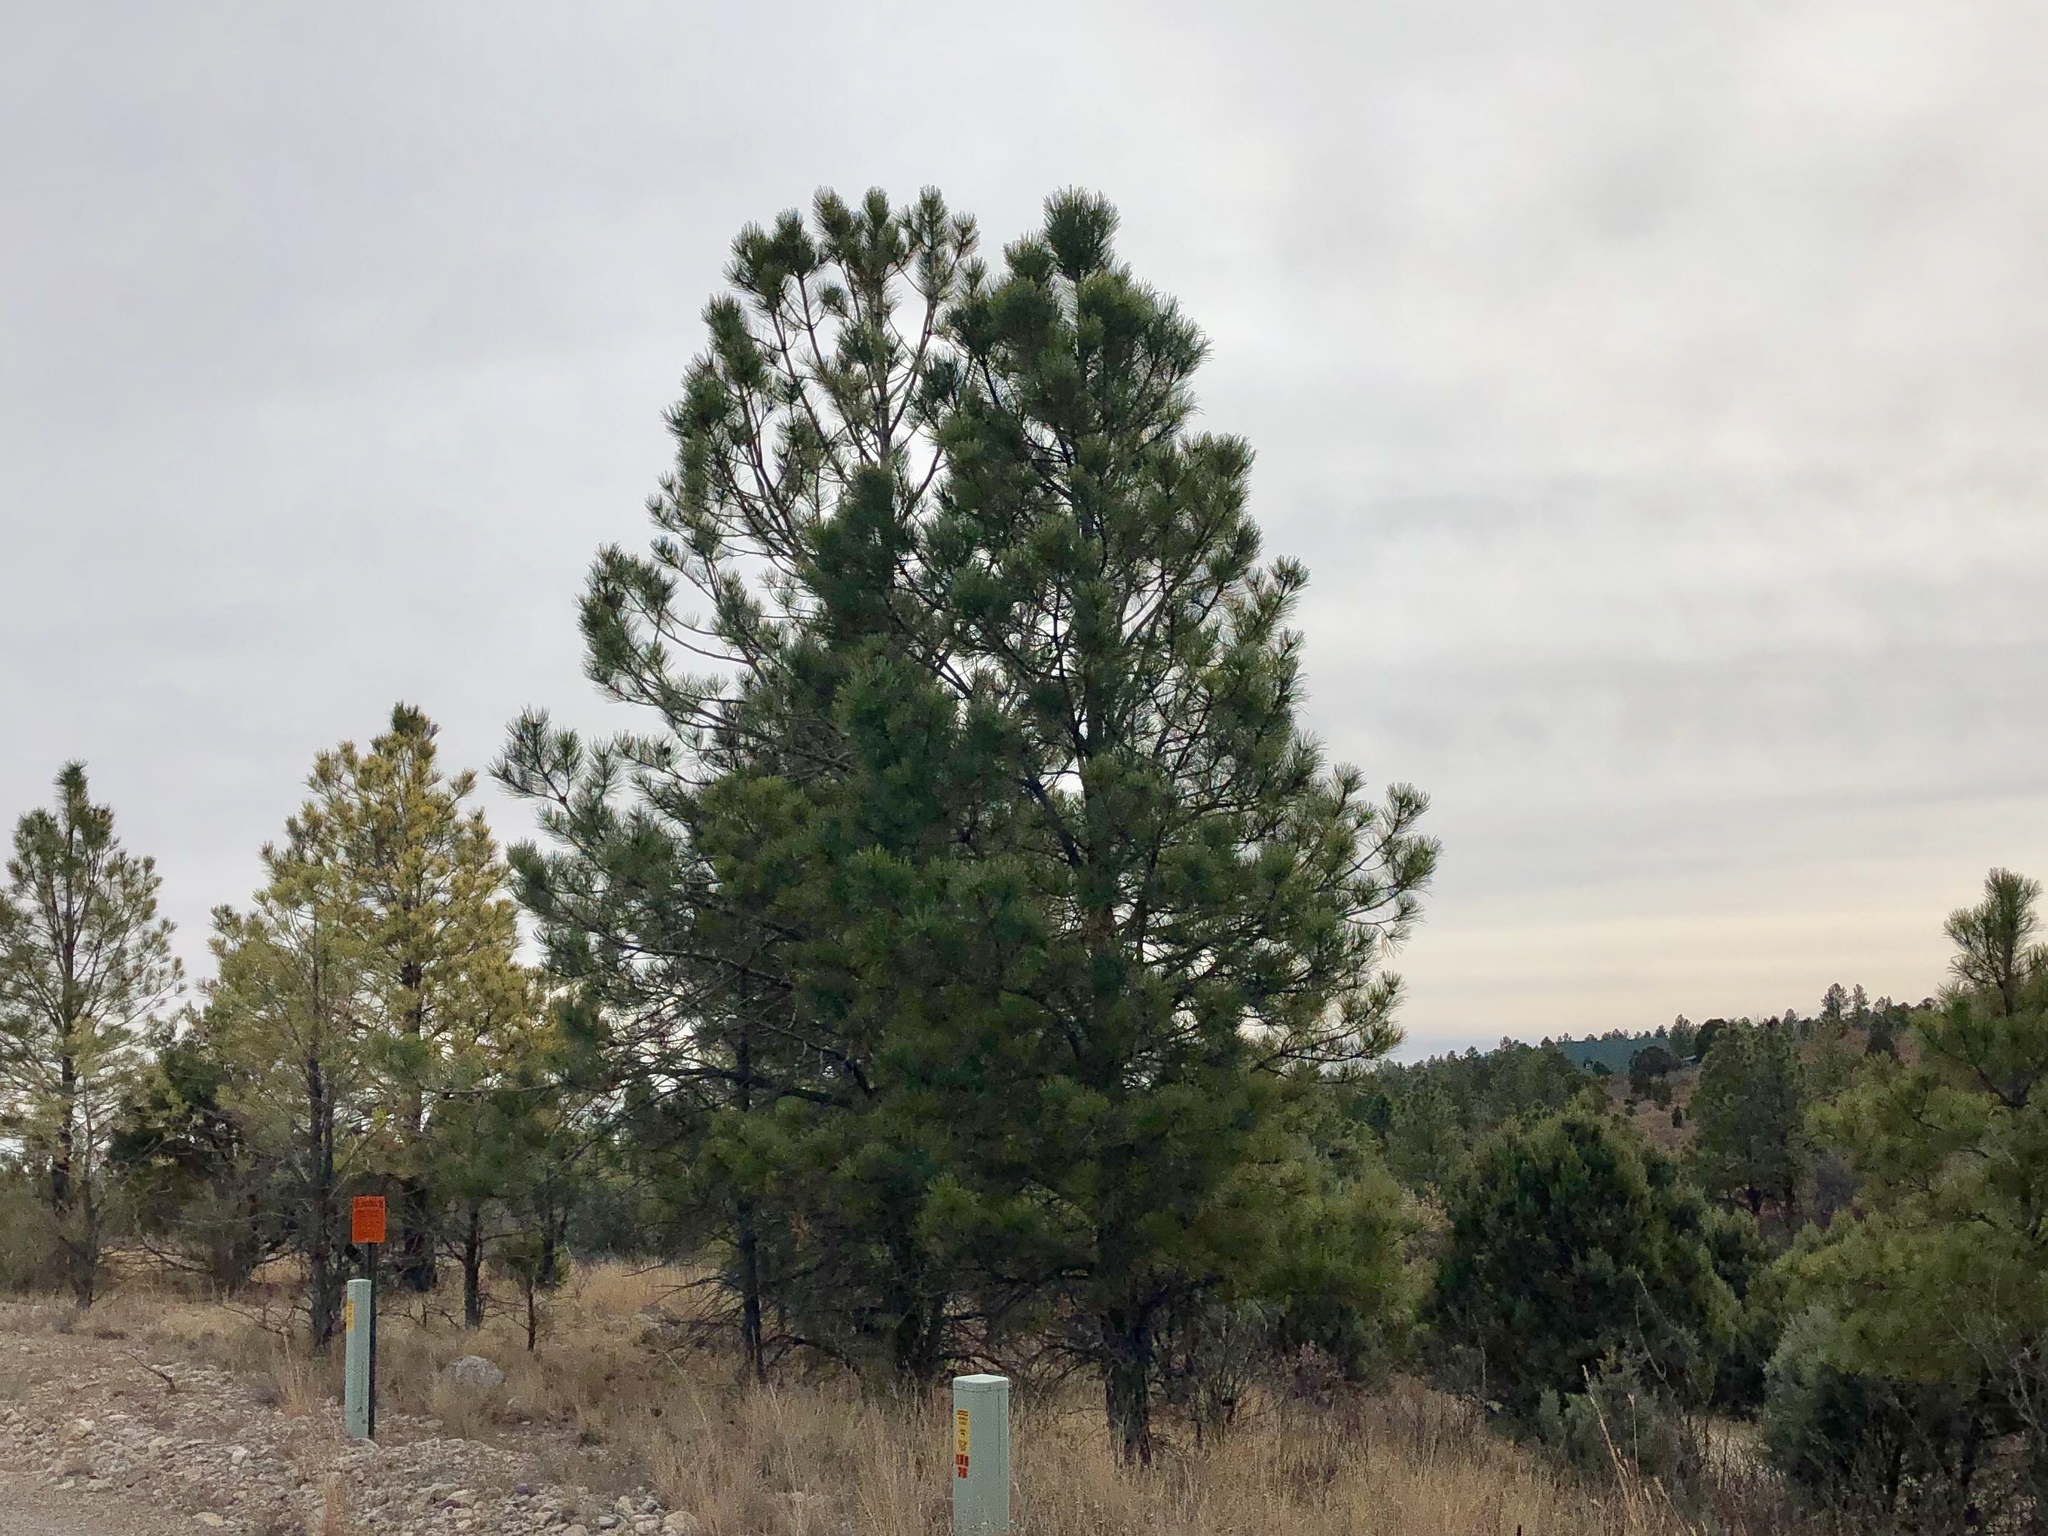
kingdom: Plantae
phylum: Tracheophyta
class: Pinopsida
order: Pinales
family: Pinaceae
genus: Pinus
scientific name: Pinus ponderosa
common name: Western yellow-pine
